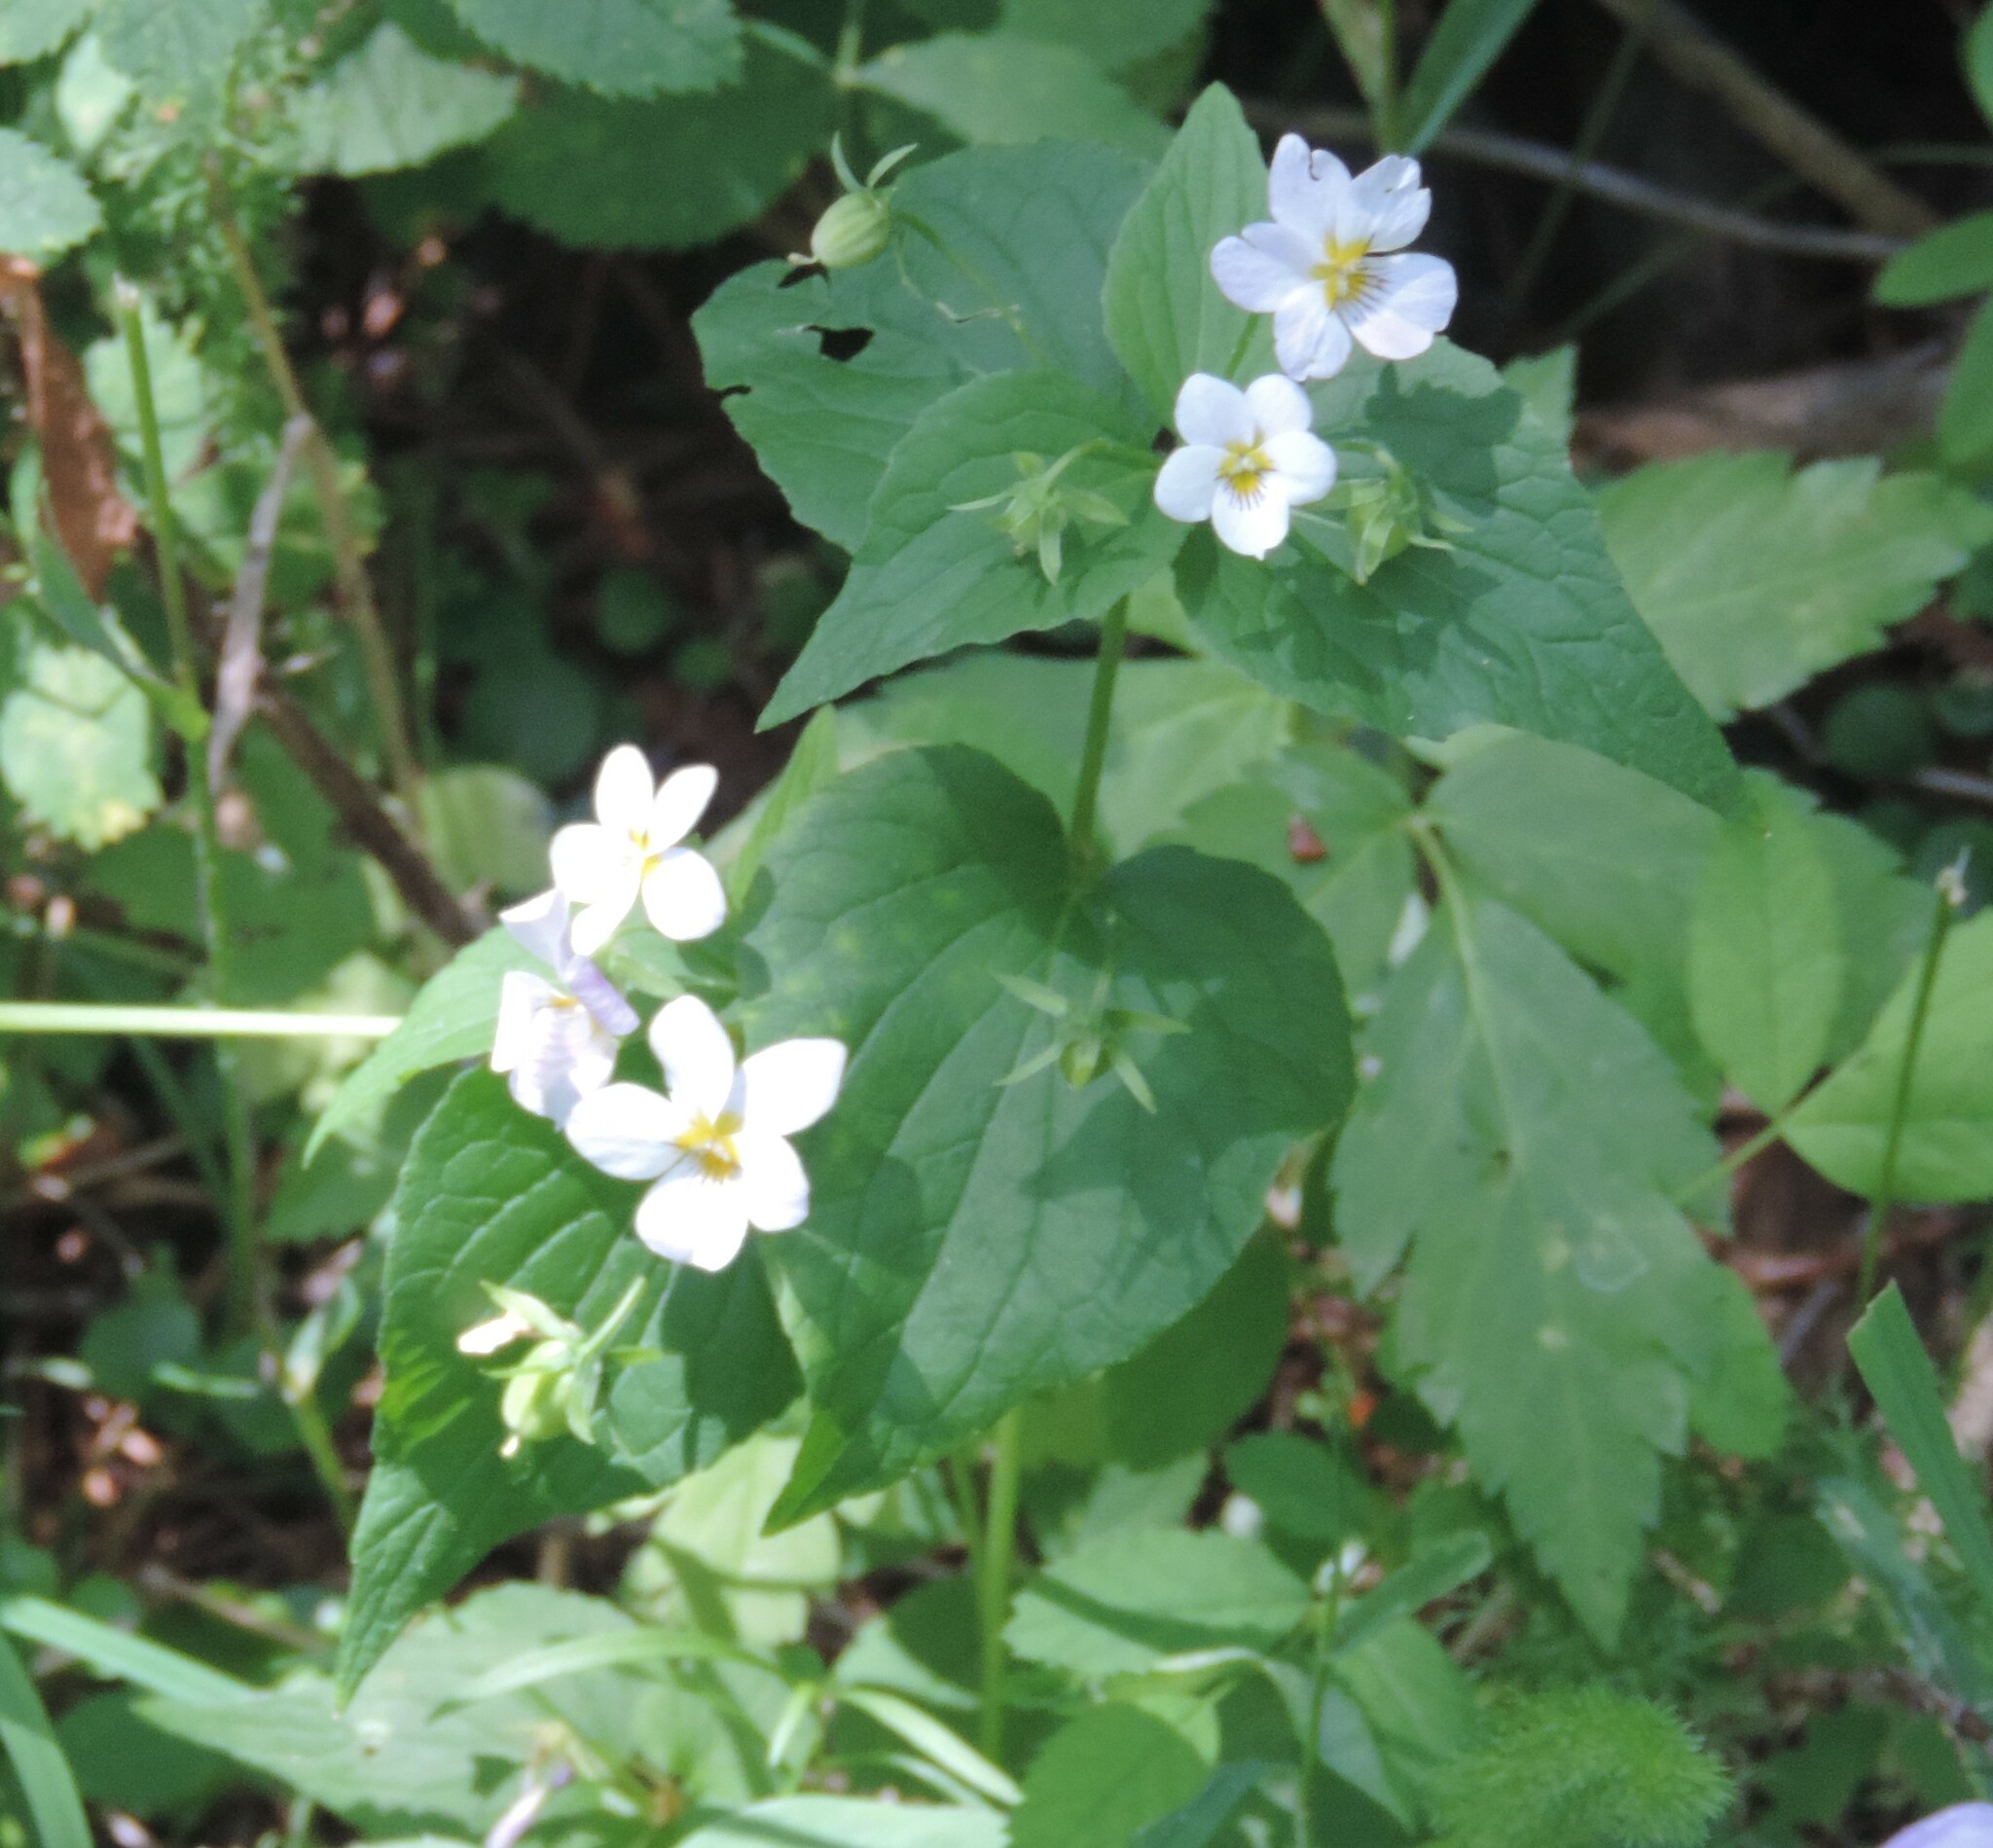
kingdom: Plantae
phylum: Tracheophyta
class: Magnoliopsida
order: Malpighiales
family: Violaceae
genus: Viola
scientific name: Viola canadensis
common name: Canada violet
